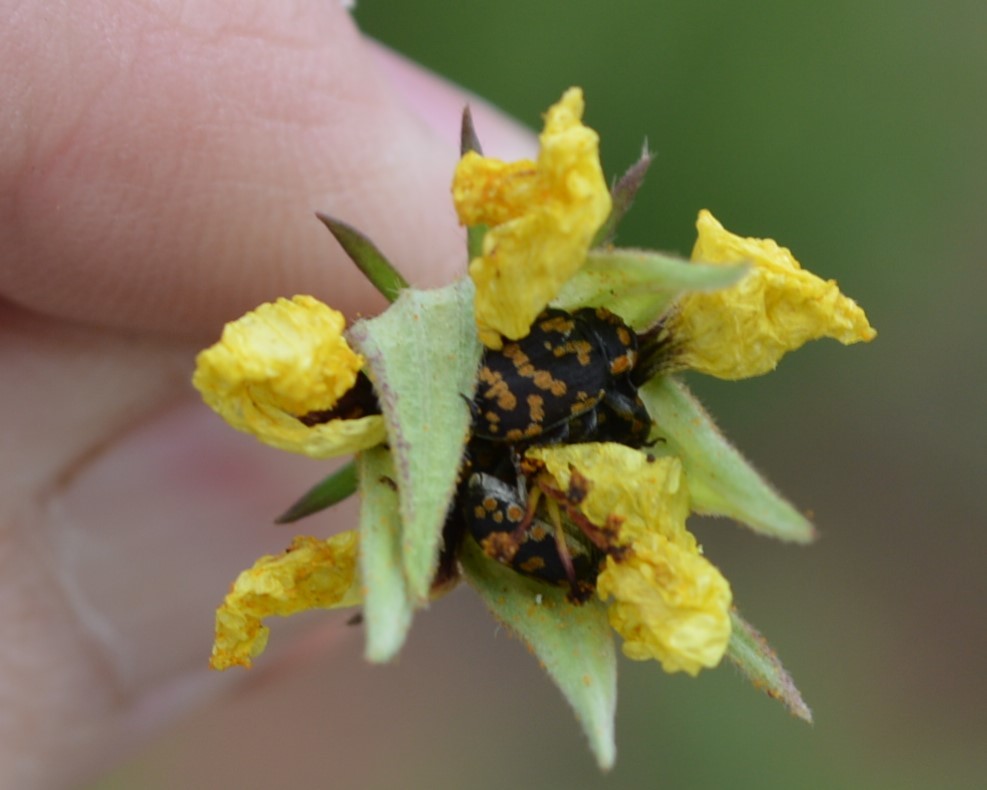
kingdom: Animalia
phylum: Arthropoda
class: Insecta
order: Coleoptera
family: Curculionidae
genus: Nerthops
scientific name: Nerthops sticticus
